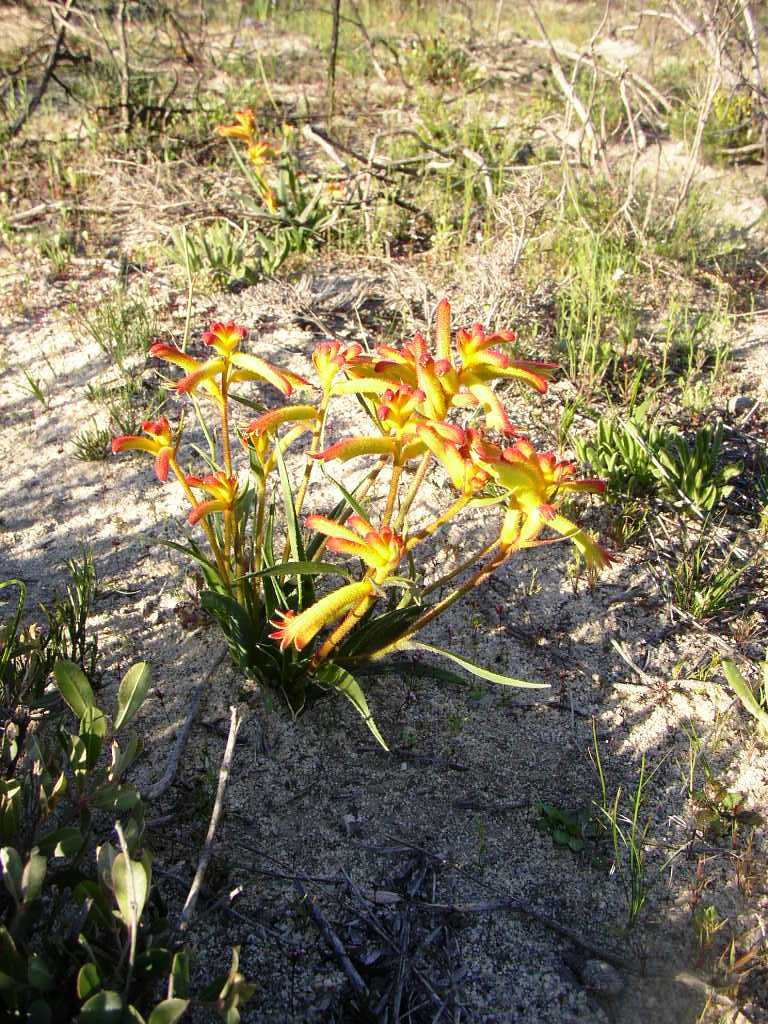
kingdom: Plantae
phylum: Tracheophyta
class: Liliopsida
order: Commelinales
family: Haemodoraceae
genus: Anigozanthos
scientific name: Anigozanthos humilis
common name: Cat's-paw
